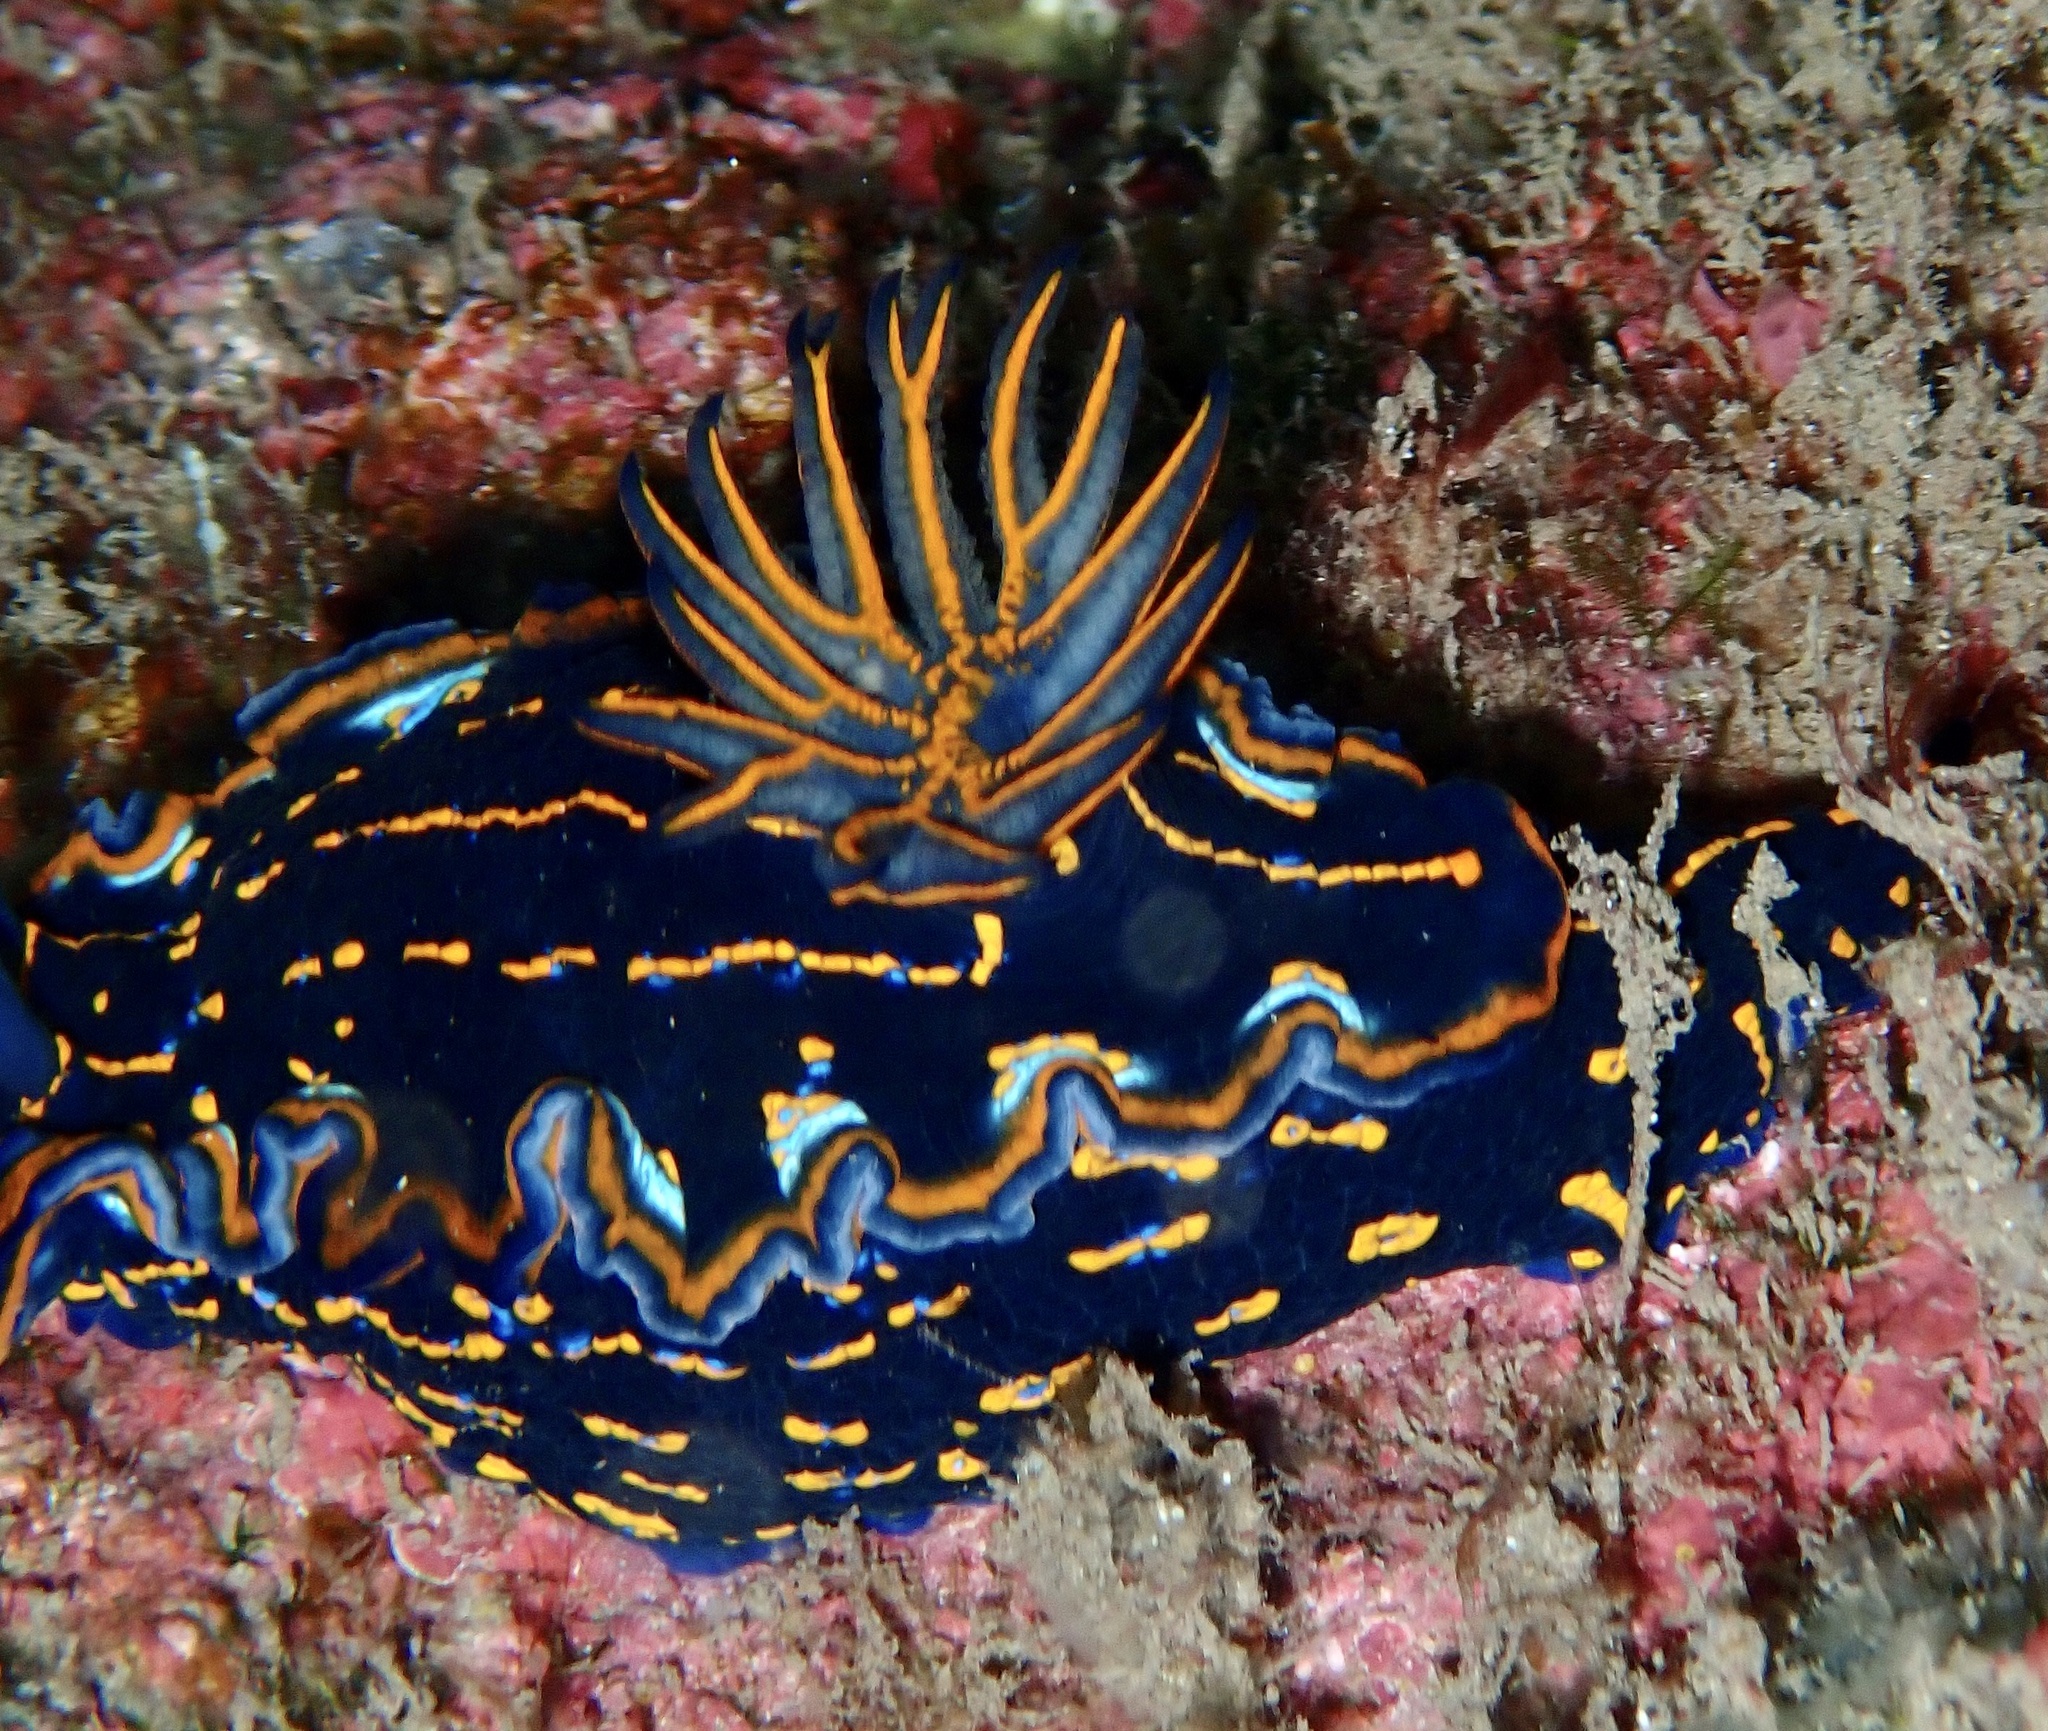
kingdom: Animalia
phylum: Mollusca
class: Gastropoda
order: Nudibranchia
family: Chromodorididae
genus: Felimare
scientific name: Felimare tema
